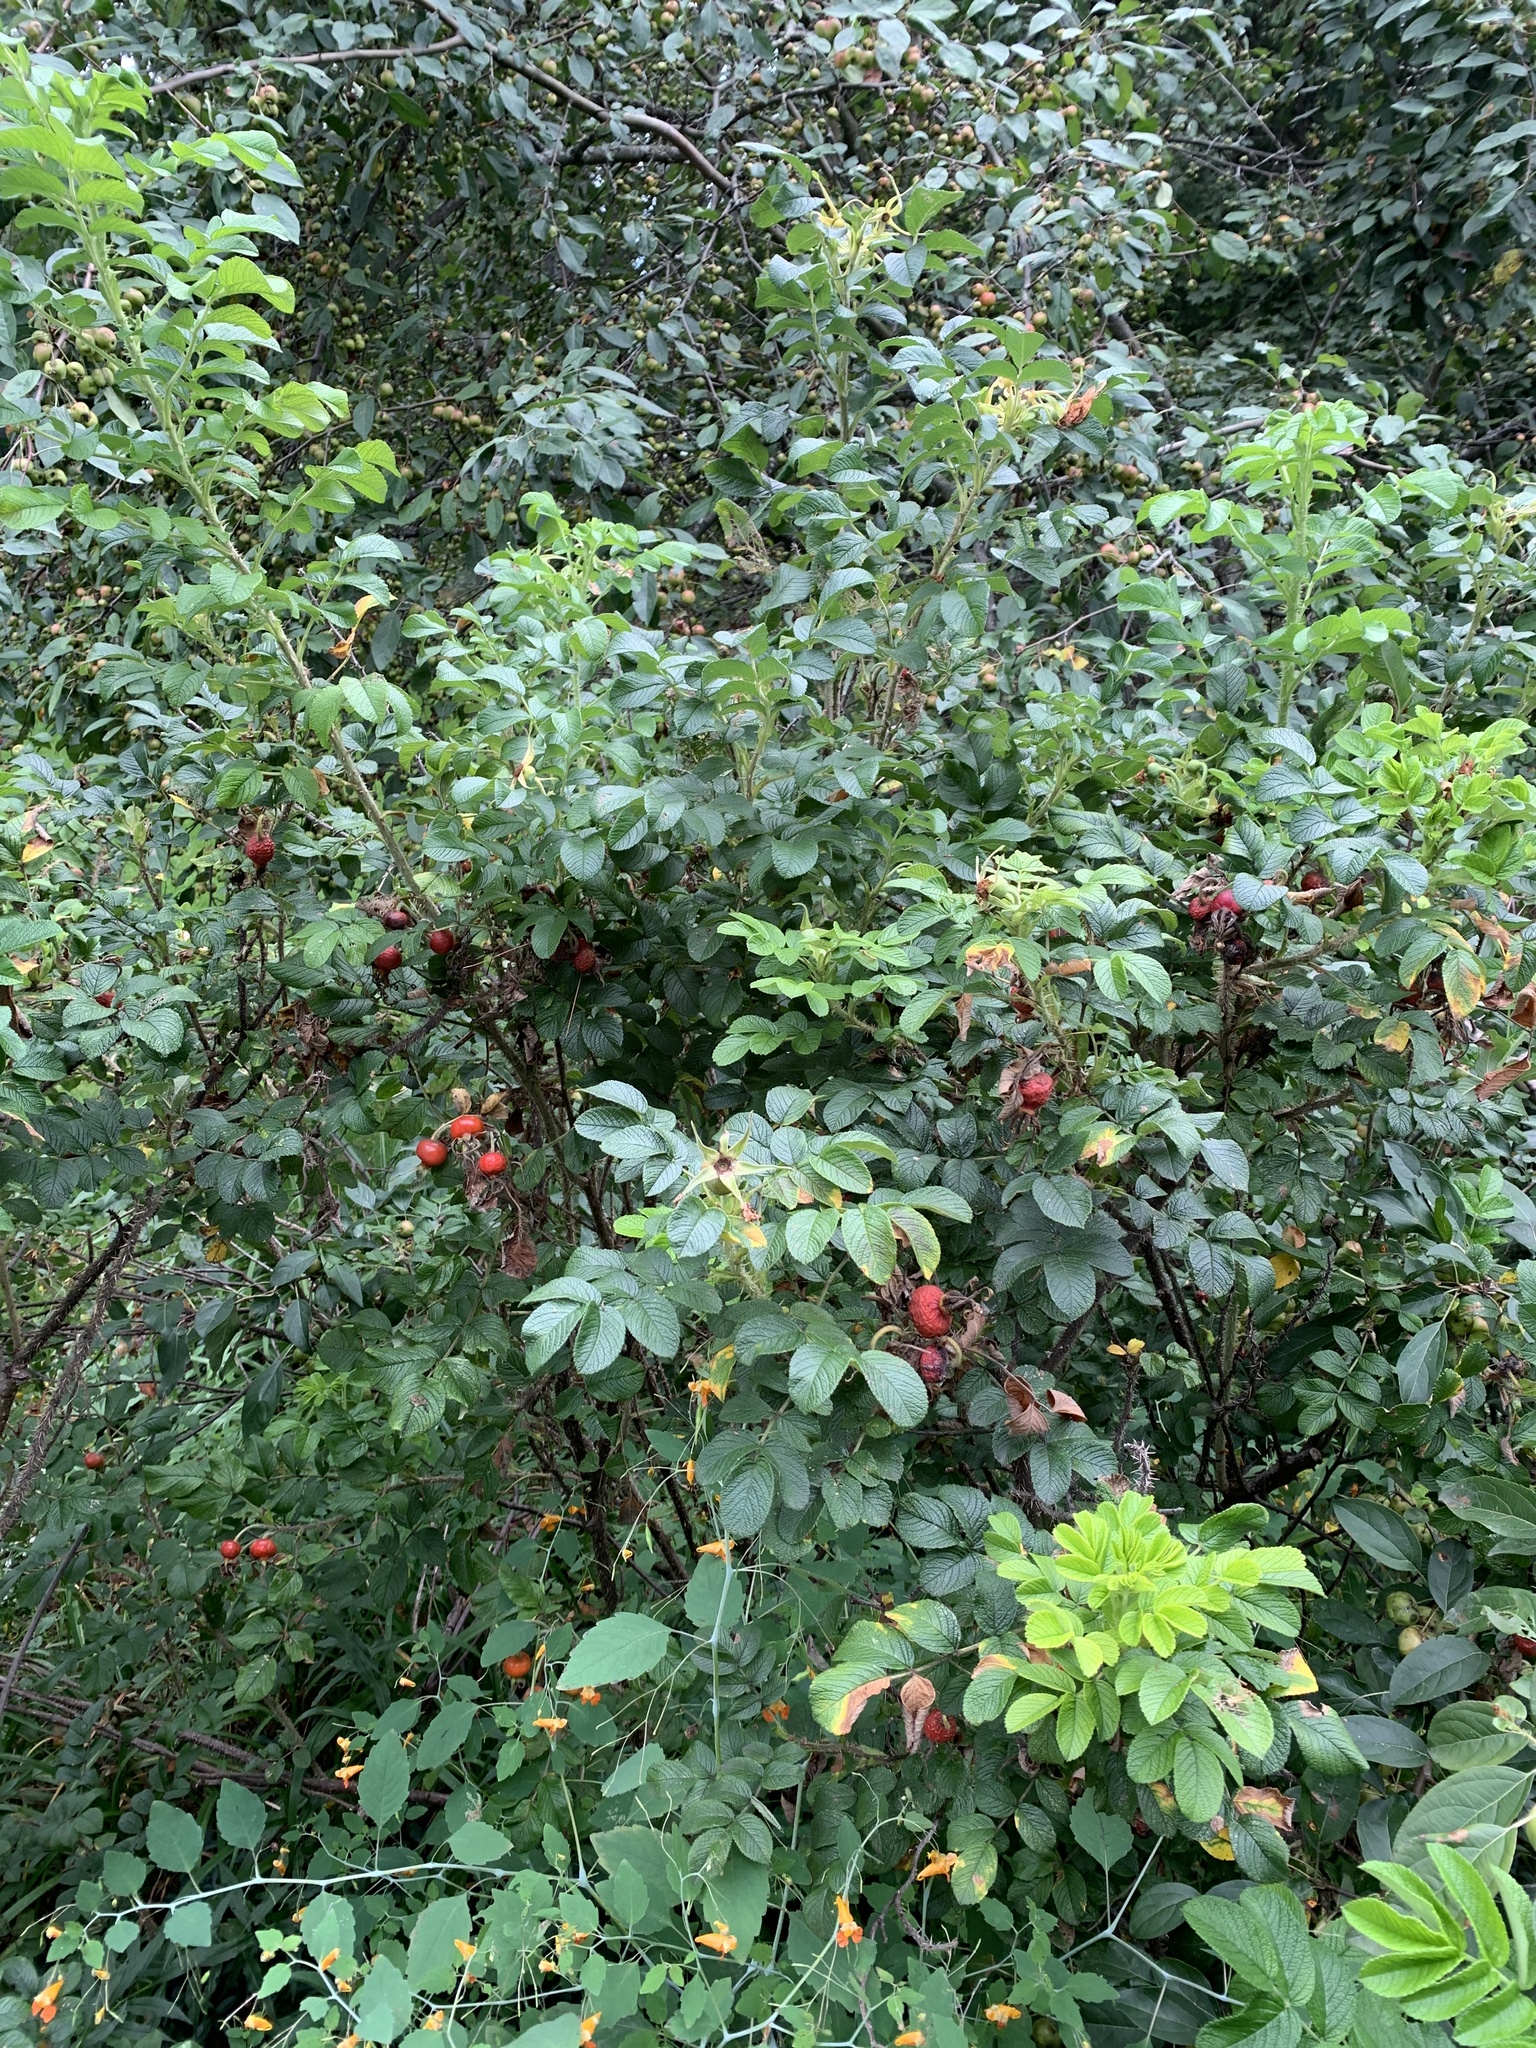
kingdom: Plantae
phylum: Tracheophyta
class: Magnoliopsida
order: Rosales
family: Rosaceae
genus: Rosa
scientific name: Rosa rugosa
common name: Japanese rose
